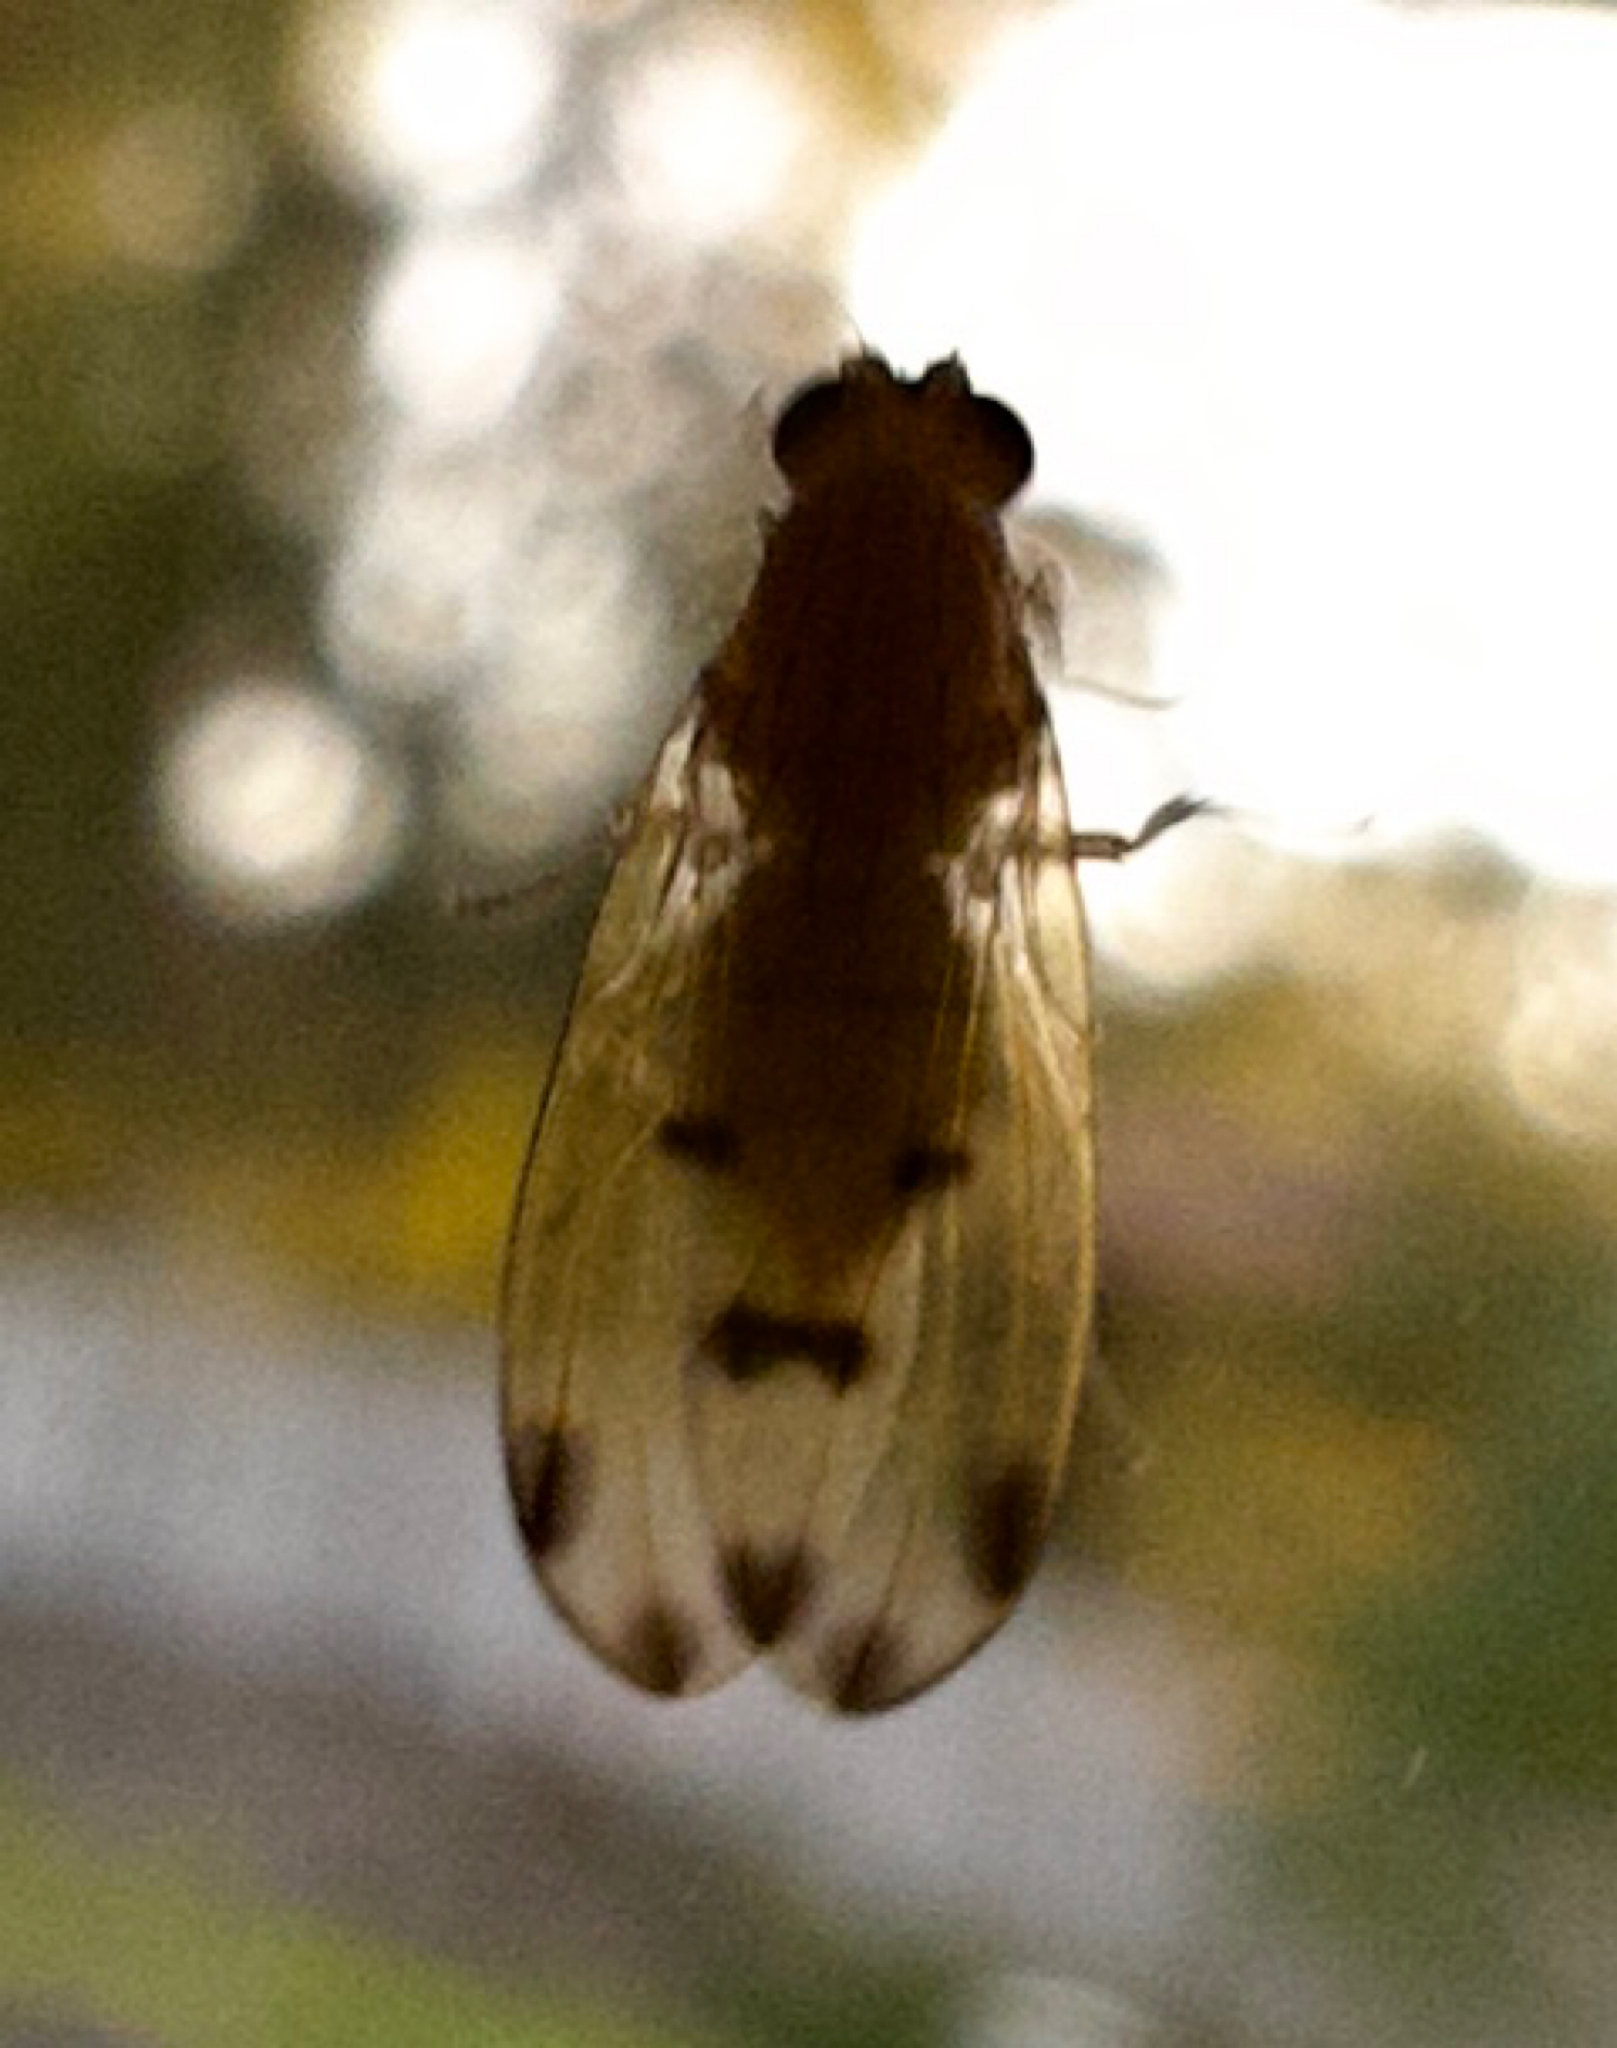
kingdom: Animalia
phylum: Arthropoda
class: Insecta
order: Diptera
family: Lauxaniidae
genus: Meiosimyza
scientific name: Meiosimyza decempunctata
